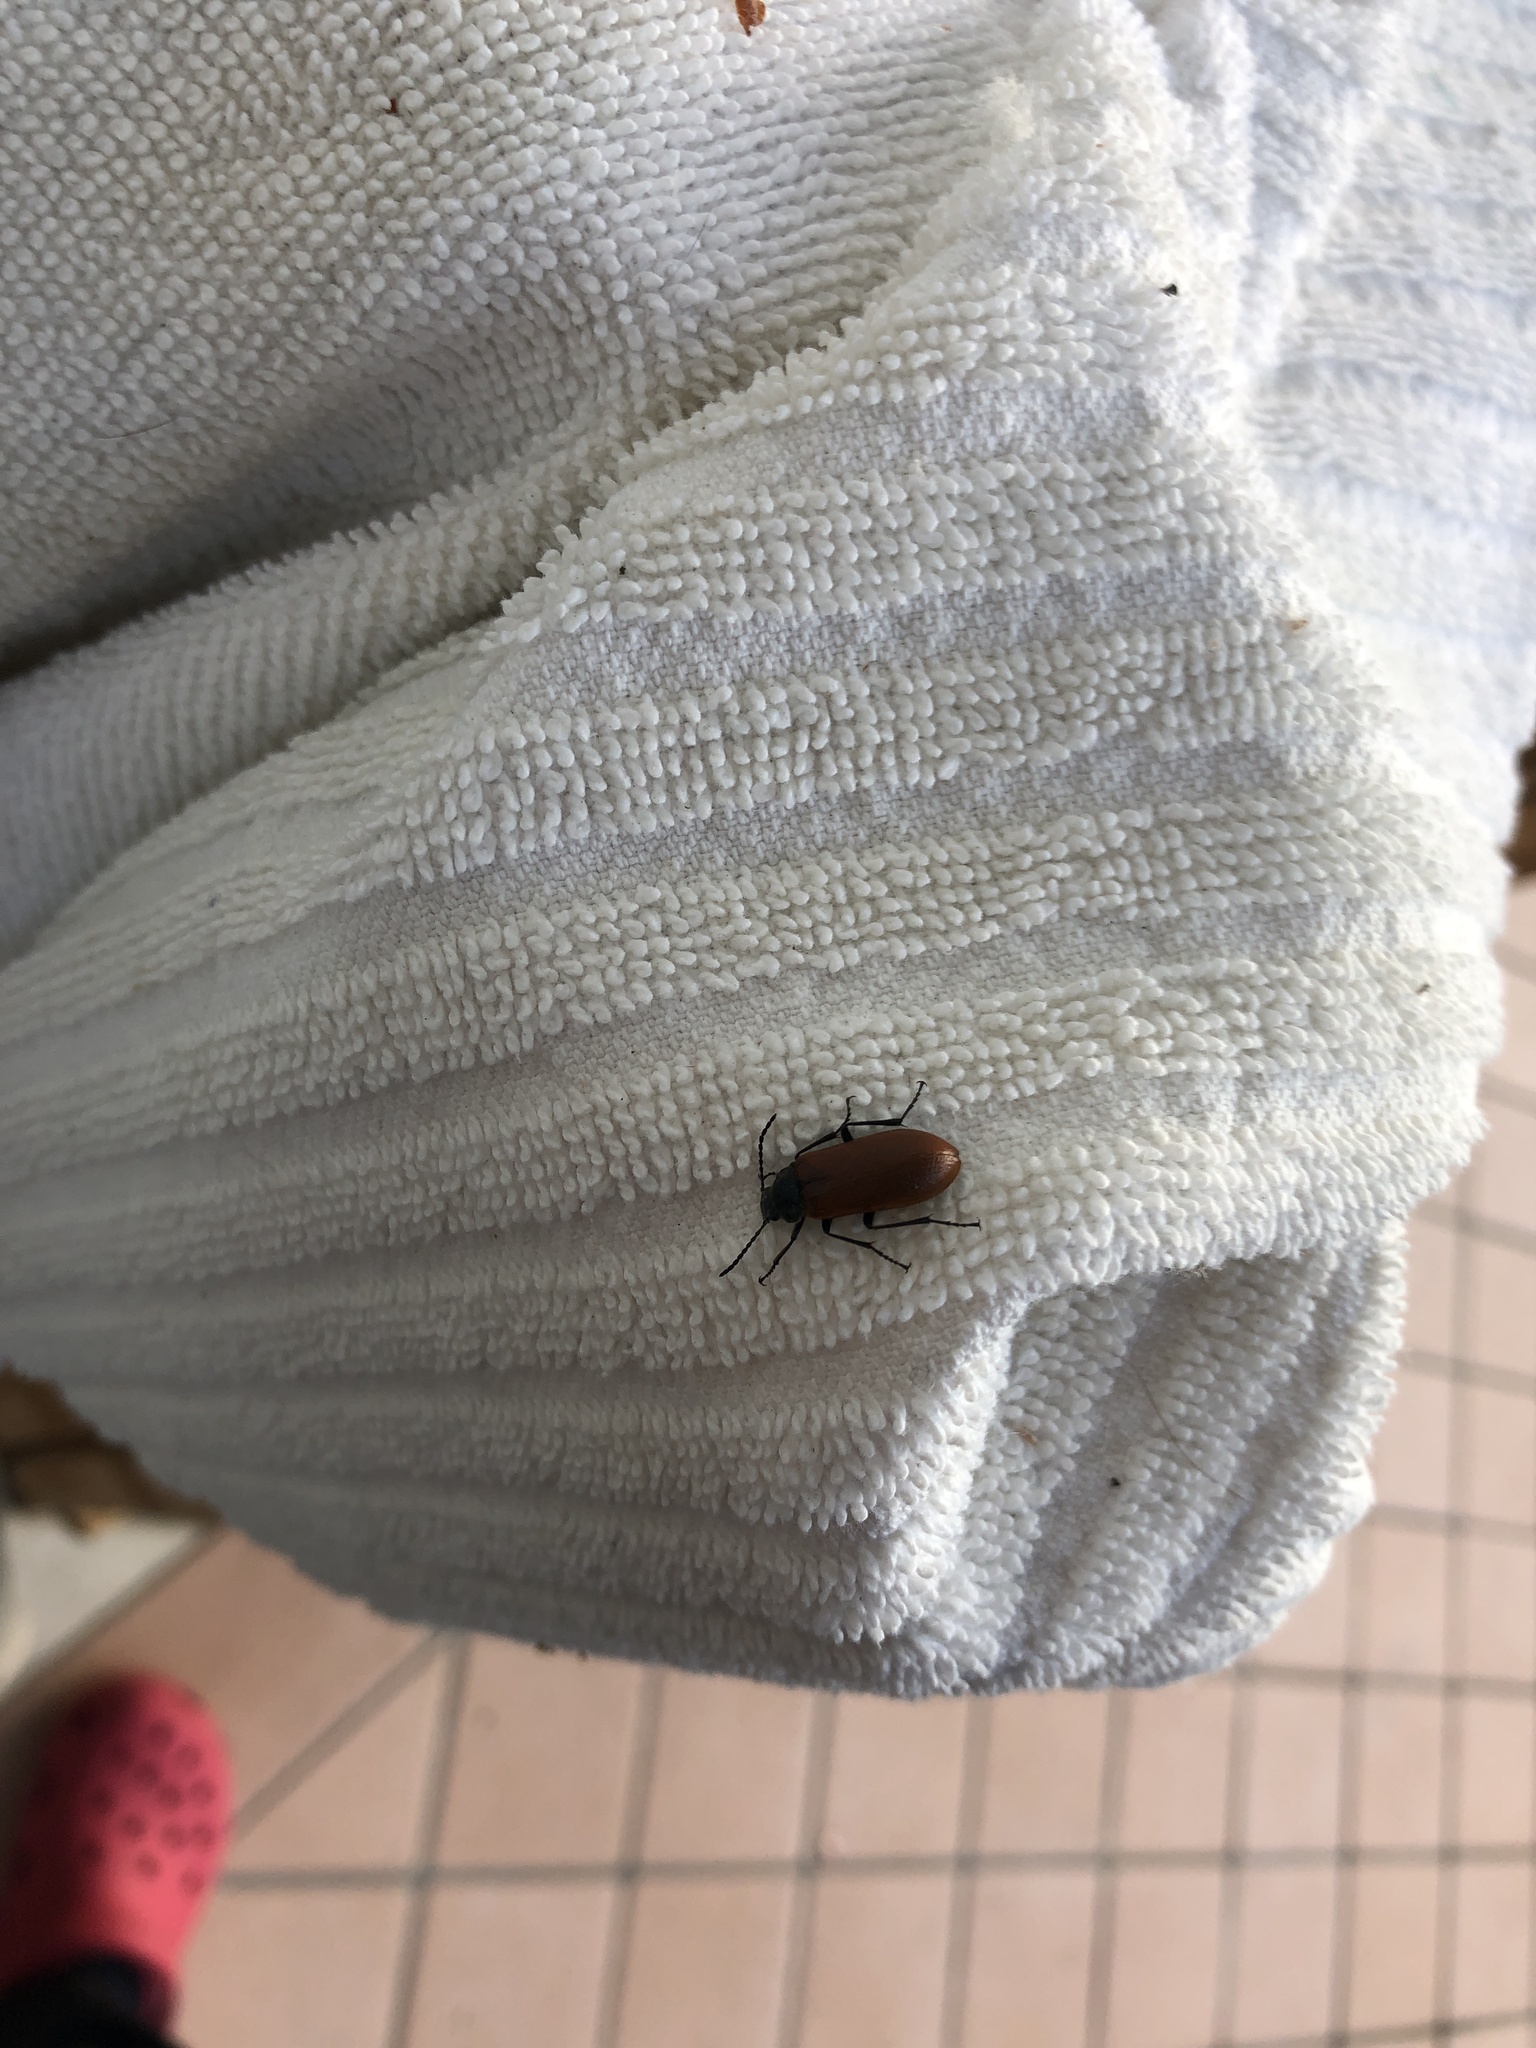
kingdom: Animalia
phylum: Arthropoda
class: Insecta
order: Coleoptera
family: Tenebrionidae
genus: Omophlus
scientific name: Omophlus lepturoides
